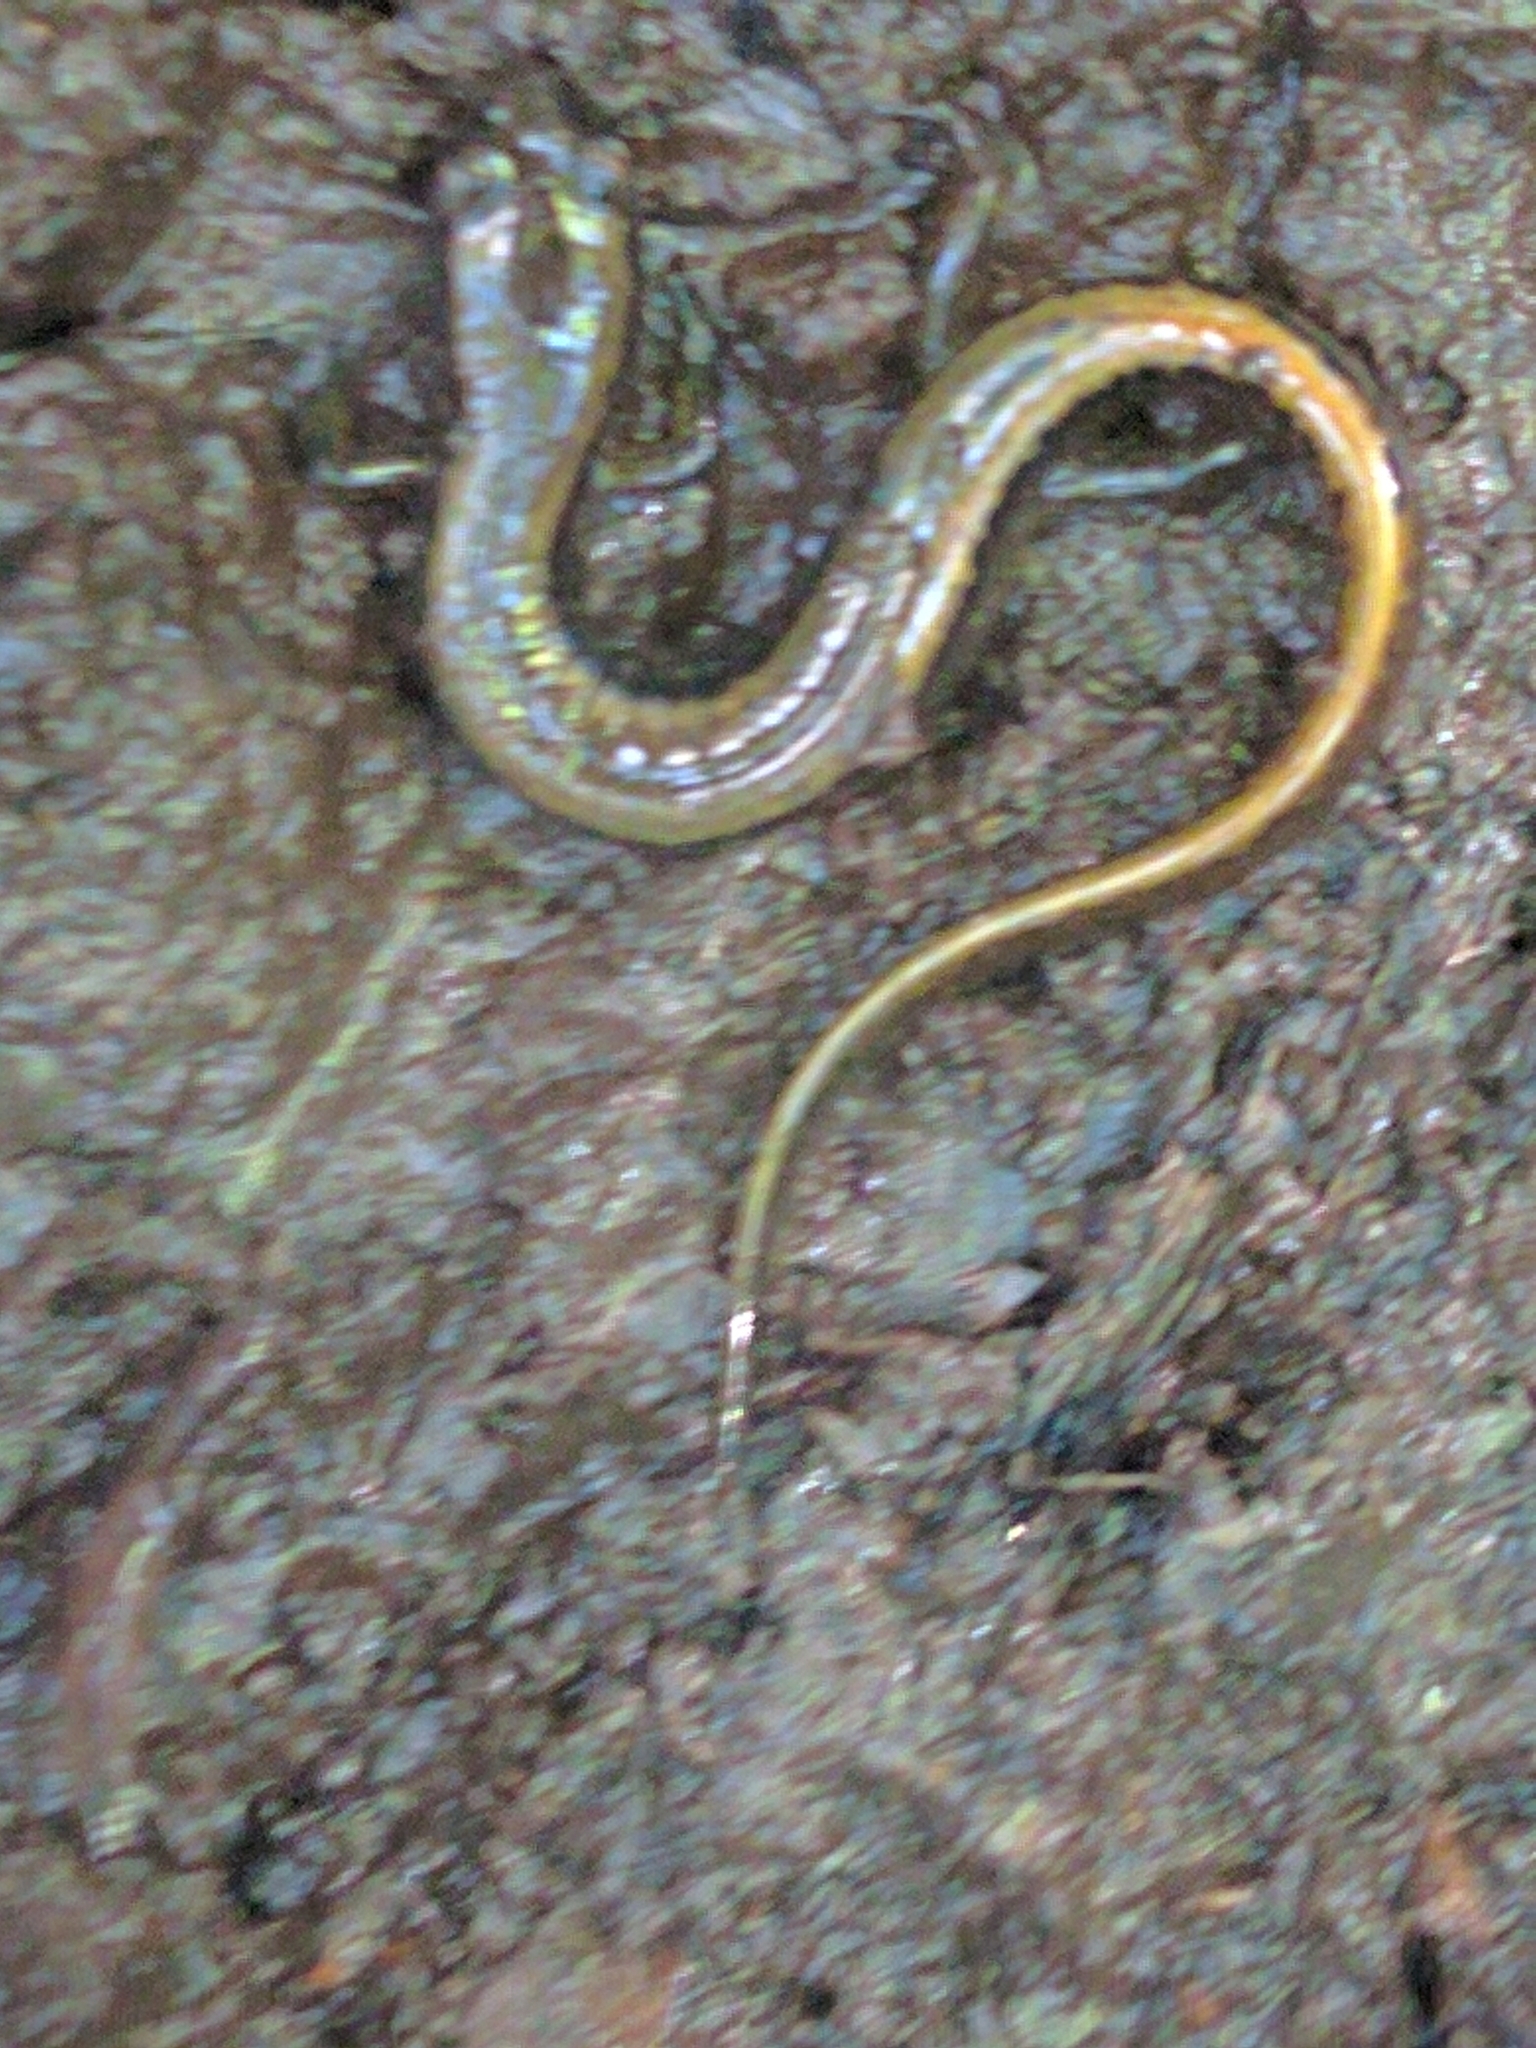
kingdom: Animalia
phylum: Chordata
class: Amphibia
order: Caudata
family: Plethodontidae
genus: Eurycea
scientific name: Eurycea bislineata
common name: Northern two-lined salamander
